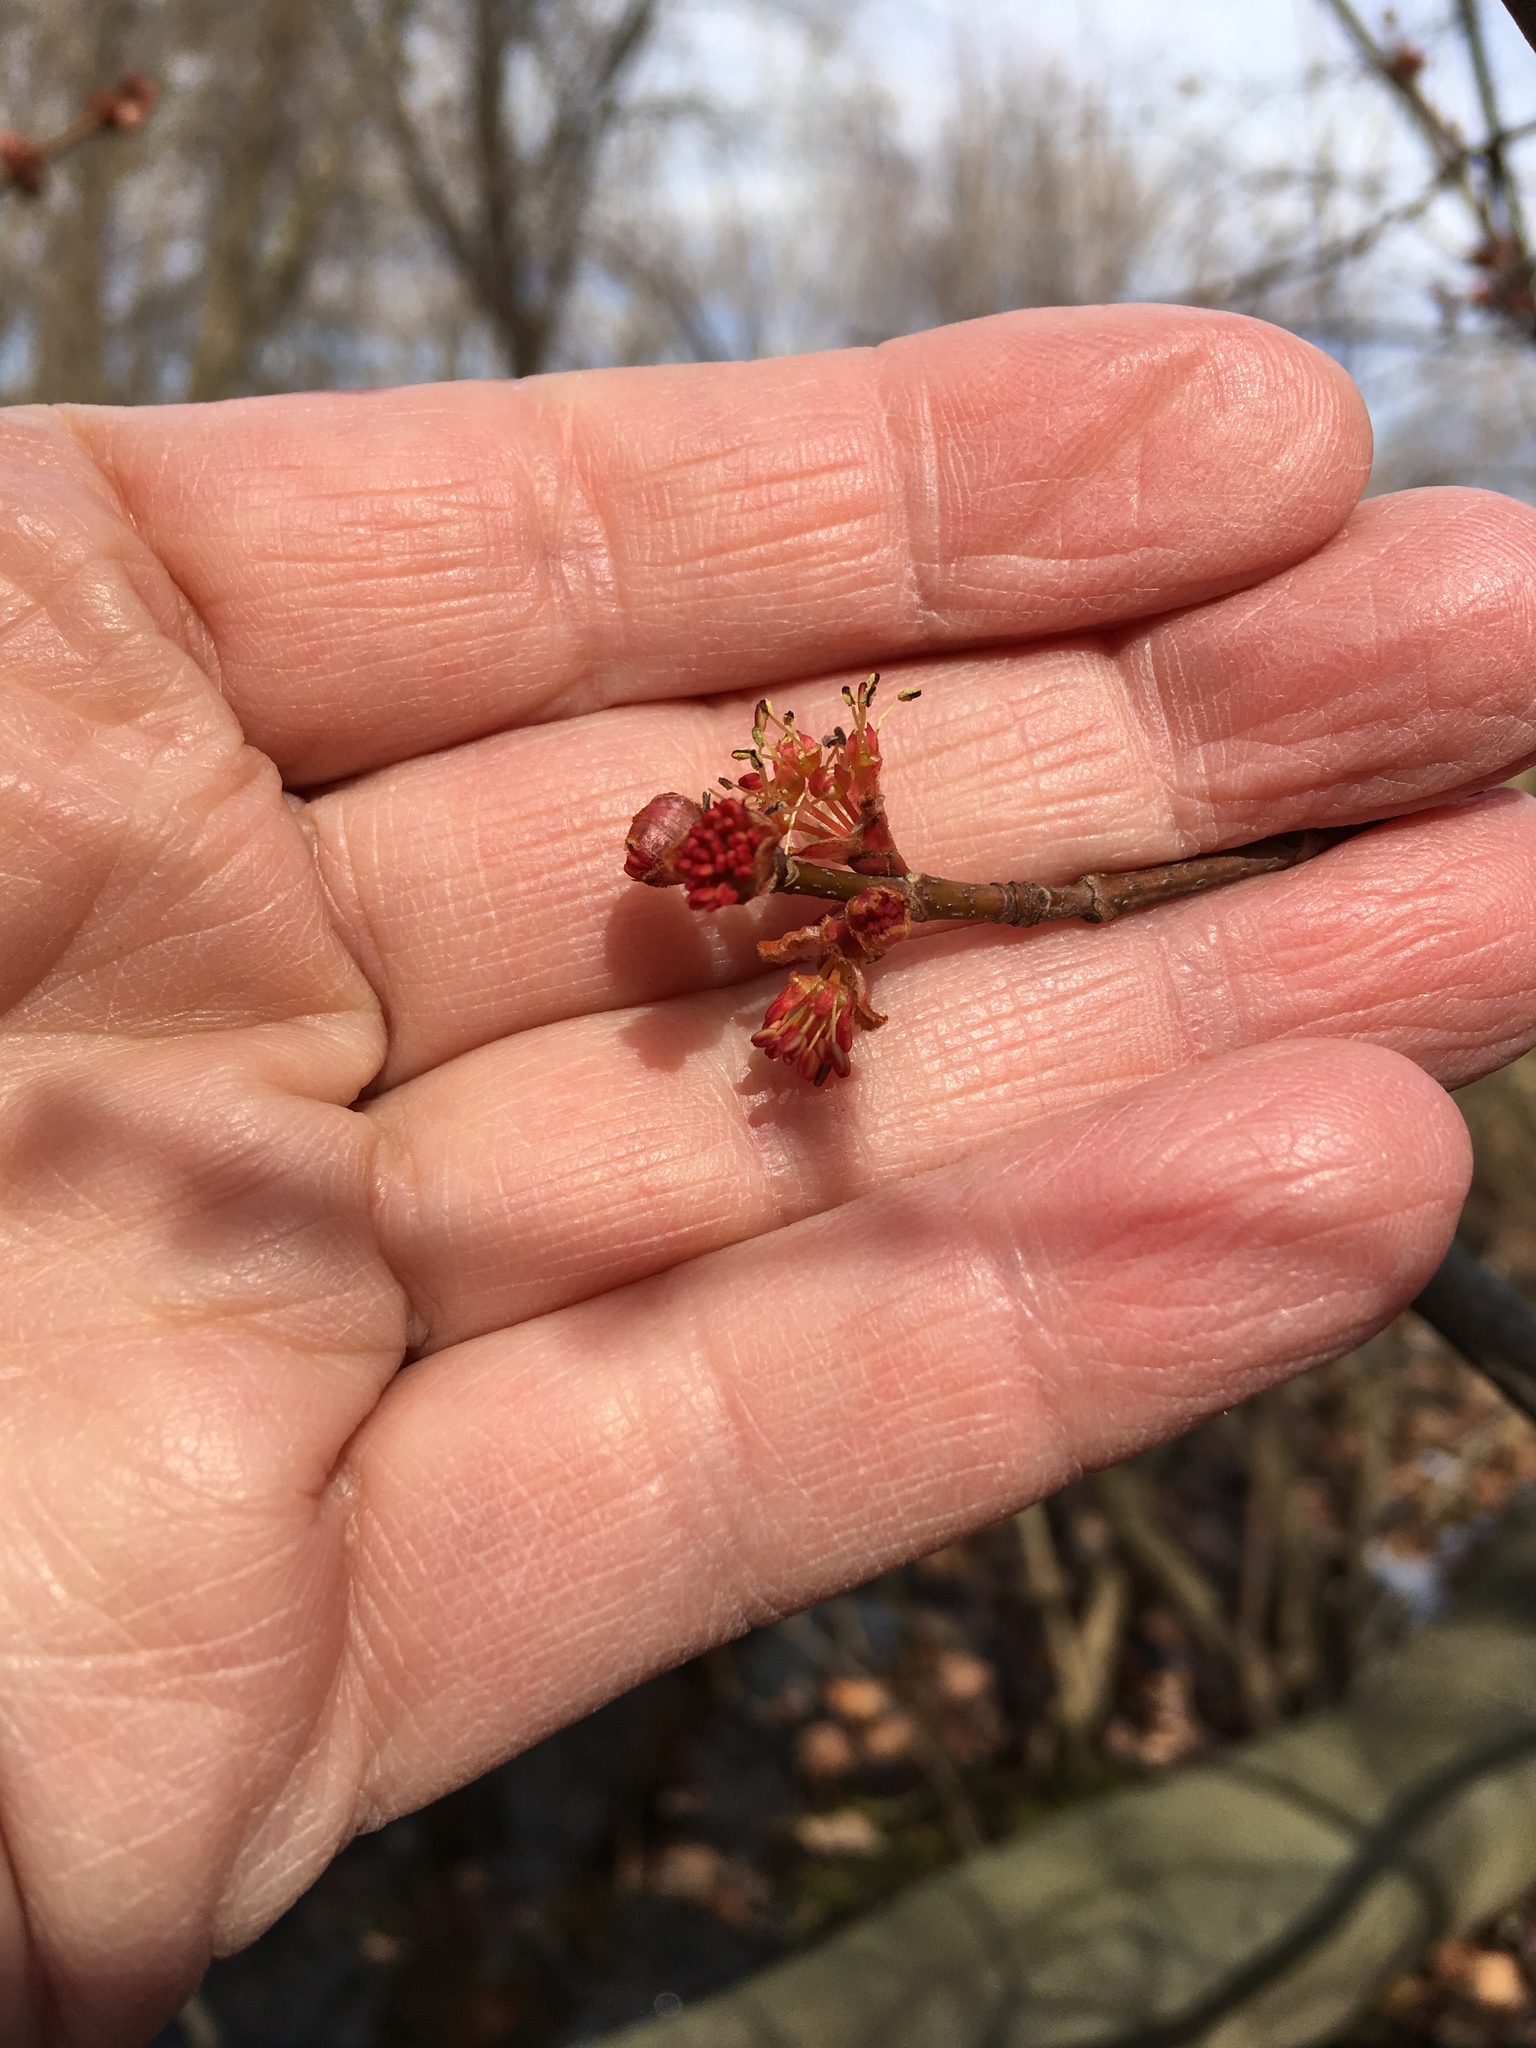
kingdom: Plantae
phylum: Tracheophyta
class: Magnoliopsida
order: Sapindales
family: Sapindaceae
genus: Acer
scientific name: Acer rubrum
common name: Red maple
